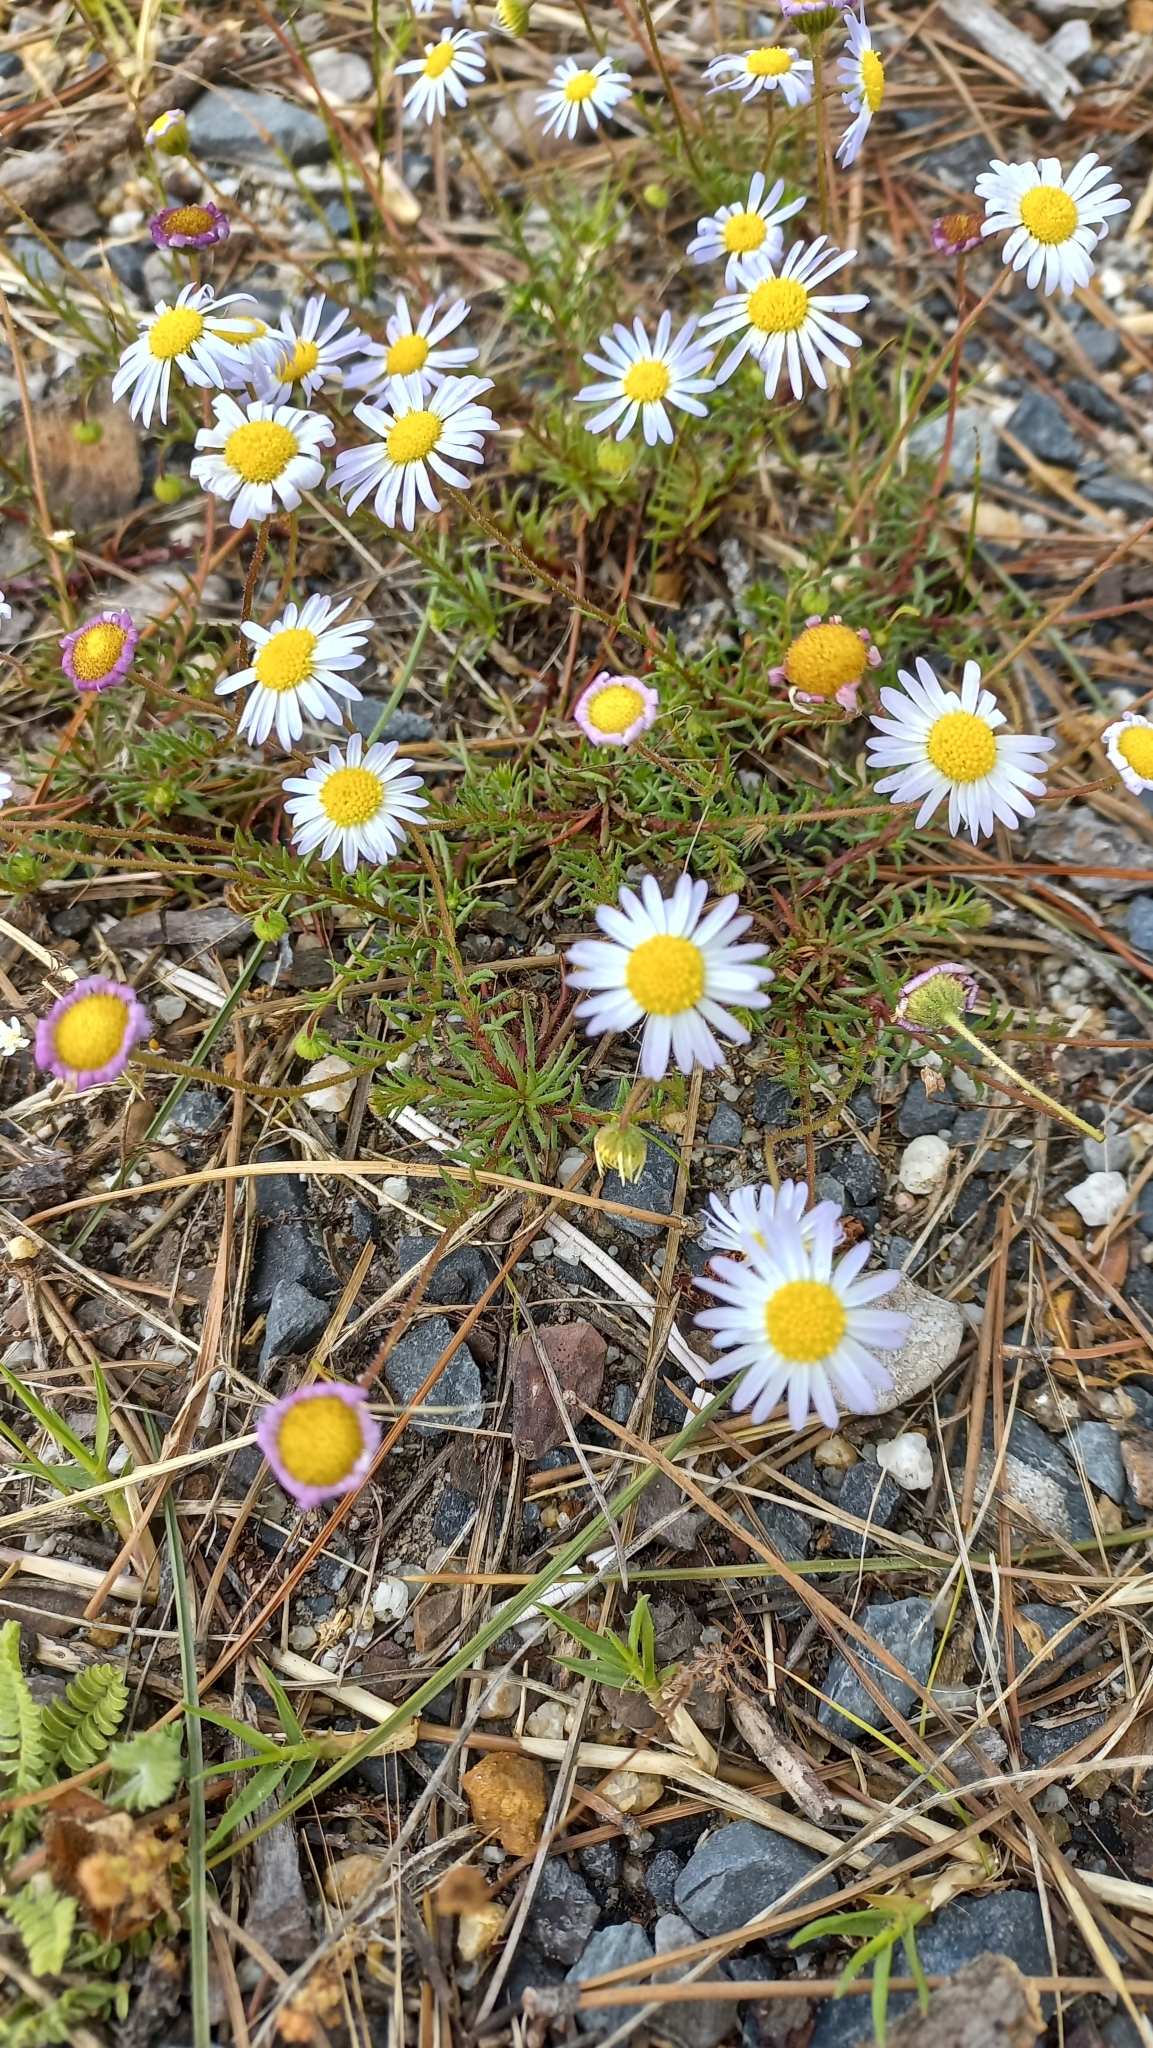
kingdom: Plantae
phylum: Tracheophyta
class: Magnoliopsida
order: Asterales
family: Asteraceae
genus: Felicia
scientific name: Felicia tenella
